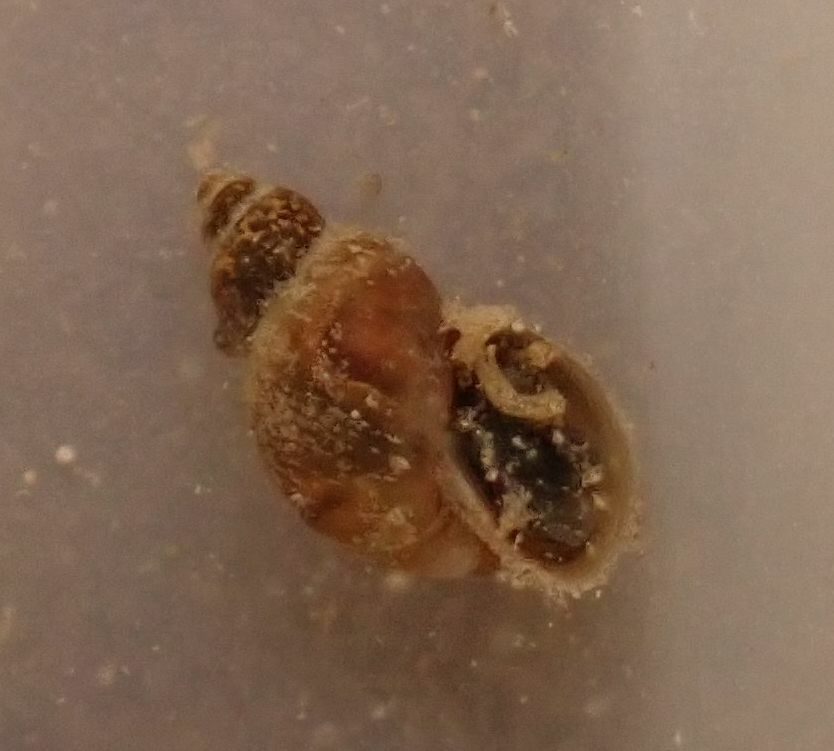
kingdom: Animalia
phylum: Mollusca
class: Gastropoda
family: Lymnaeidae
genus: Galba
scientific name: Galba truncatula
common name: Dwarf pond snail
